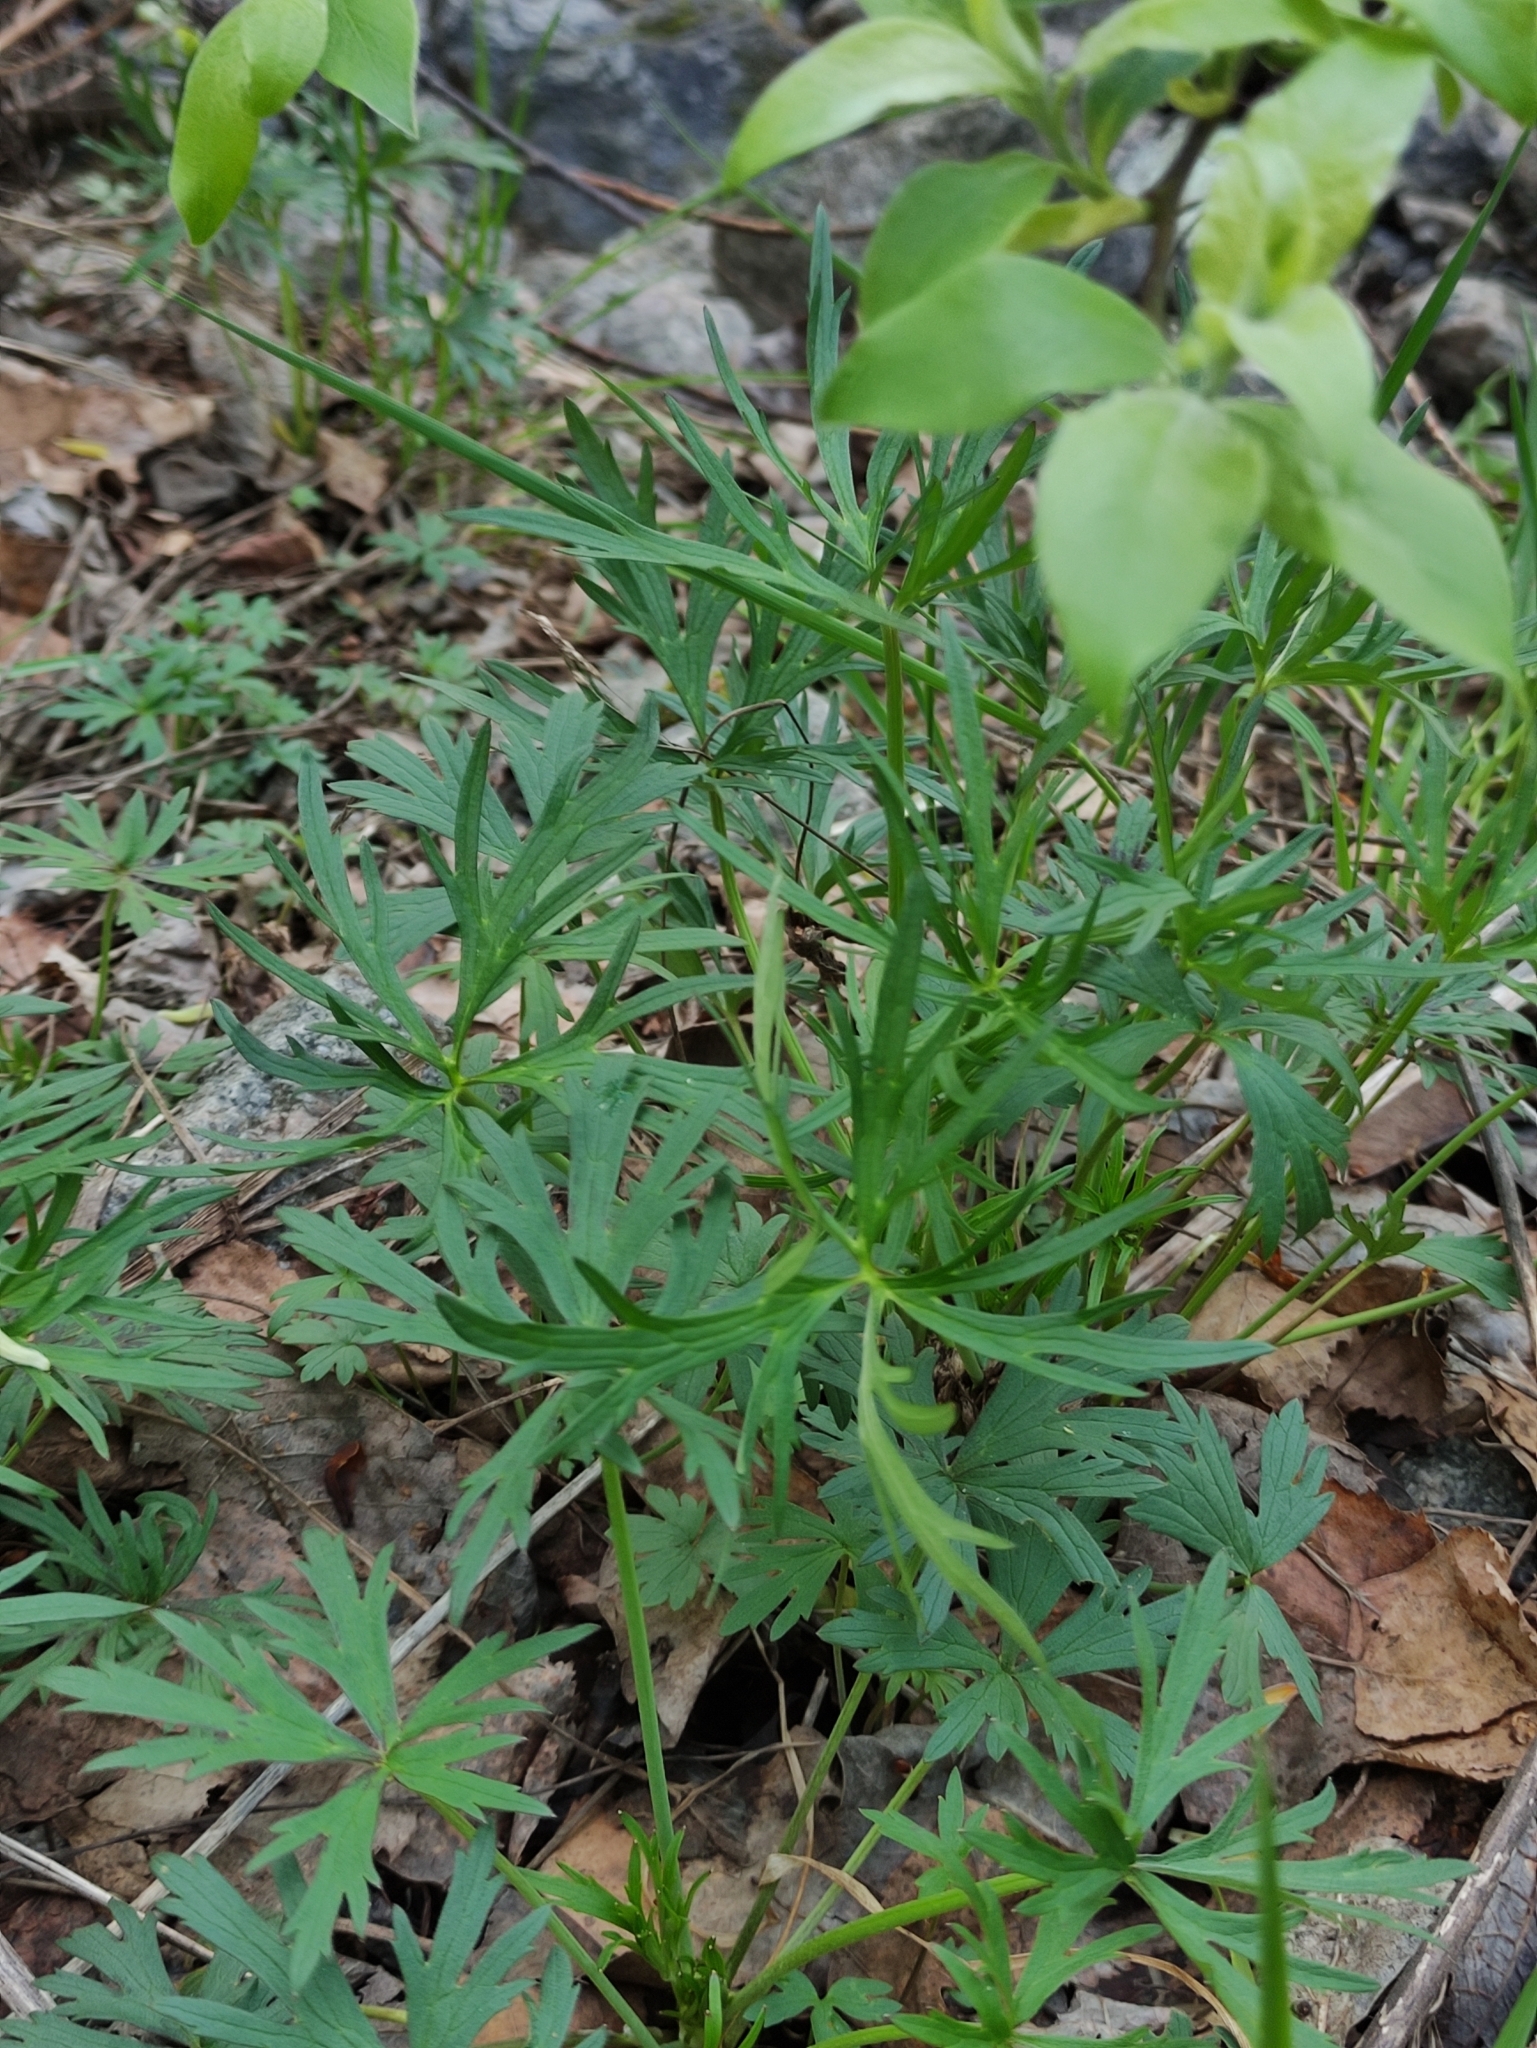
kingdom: Plantae
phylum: Tracheophyta
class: Magnoliopsida
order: Ranunculales
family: Ranunculaceae
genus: Ranunculus
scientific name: Ranunculus acris
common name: Meadow buttercup
